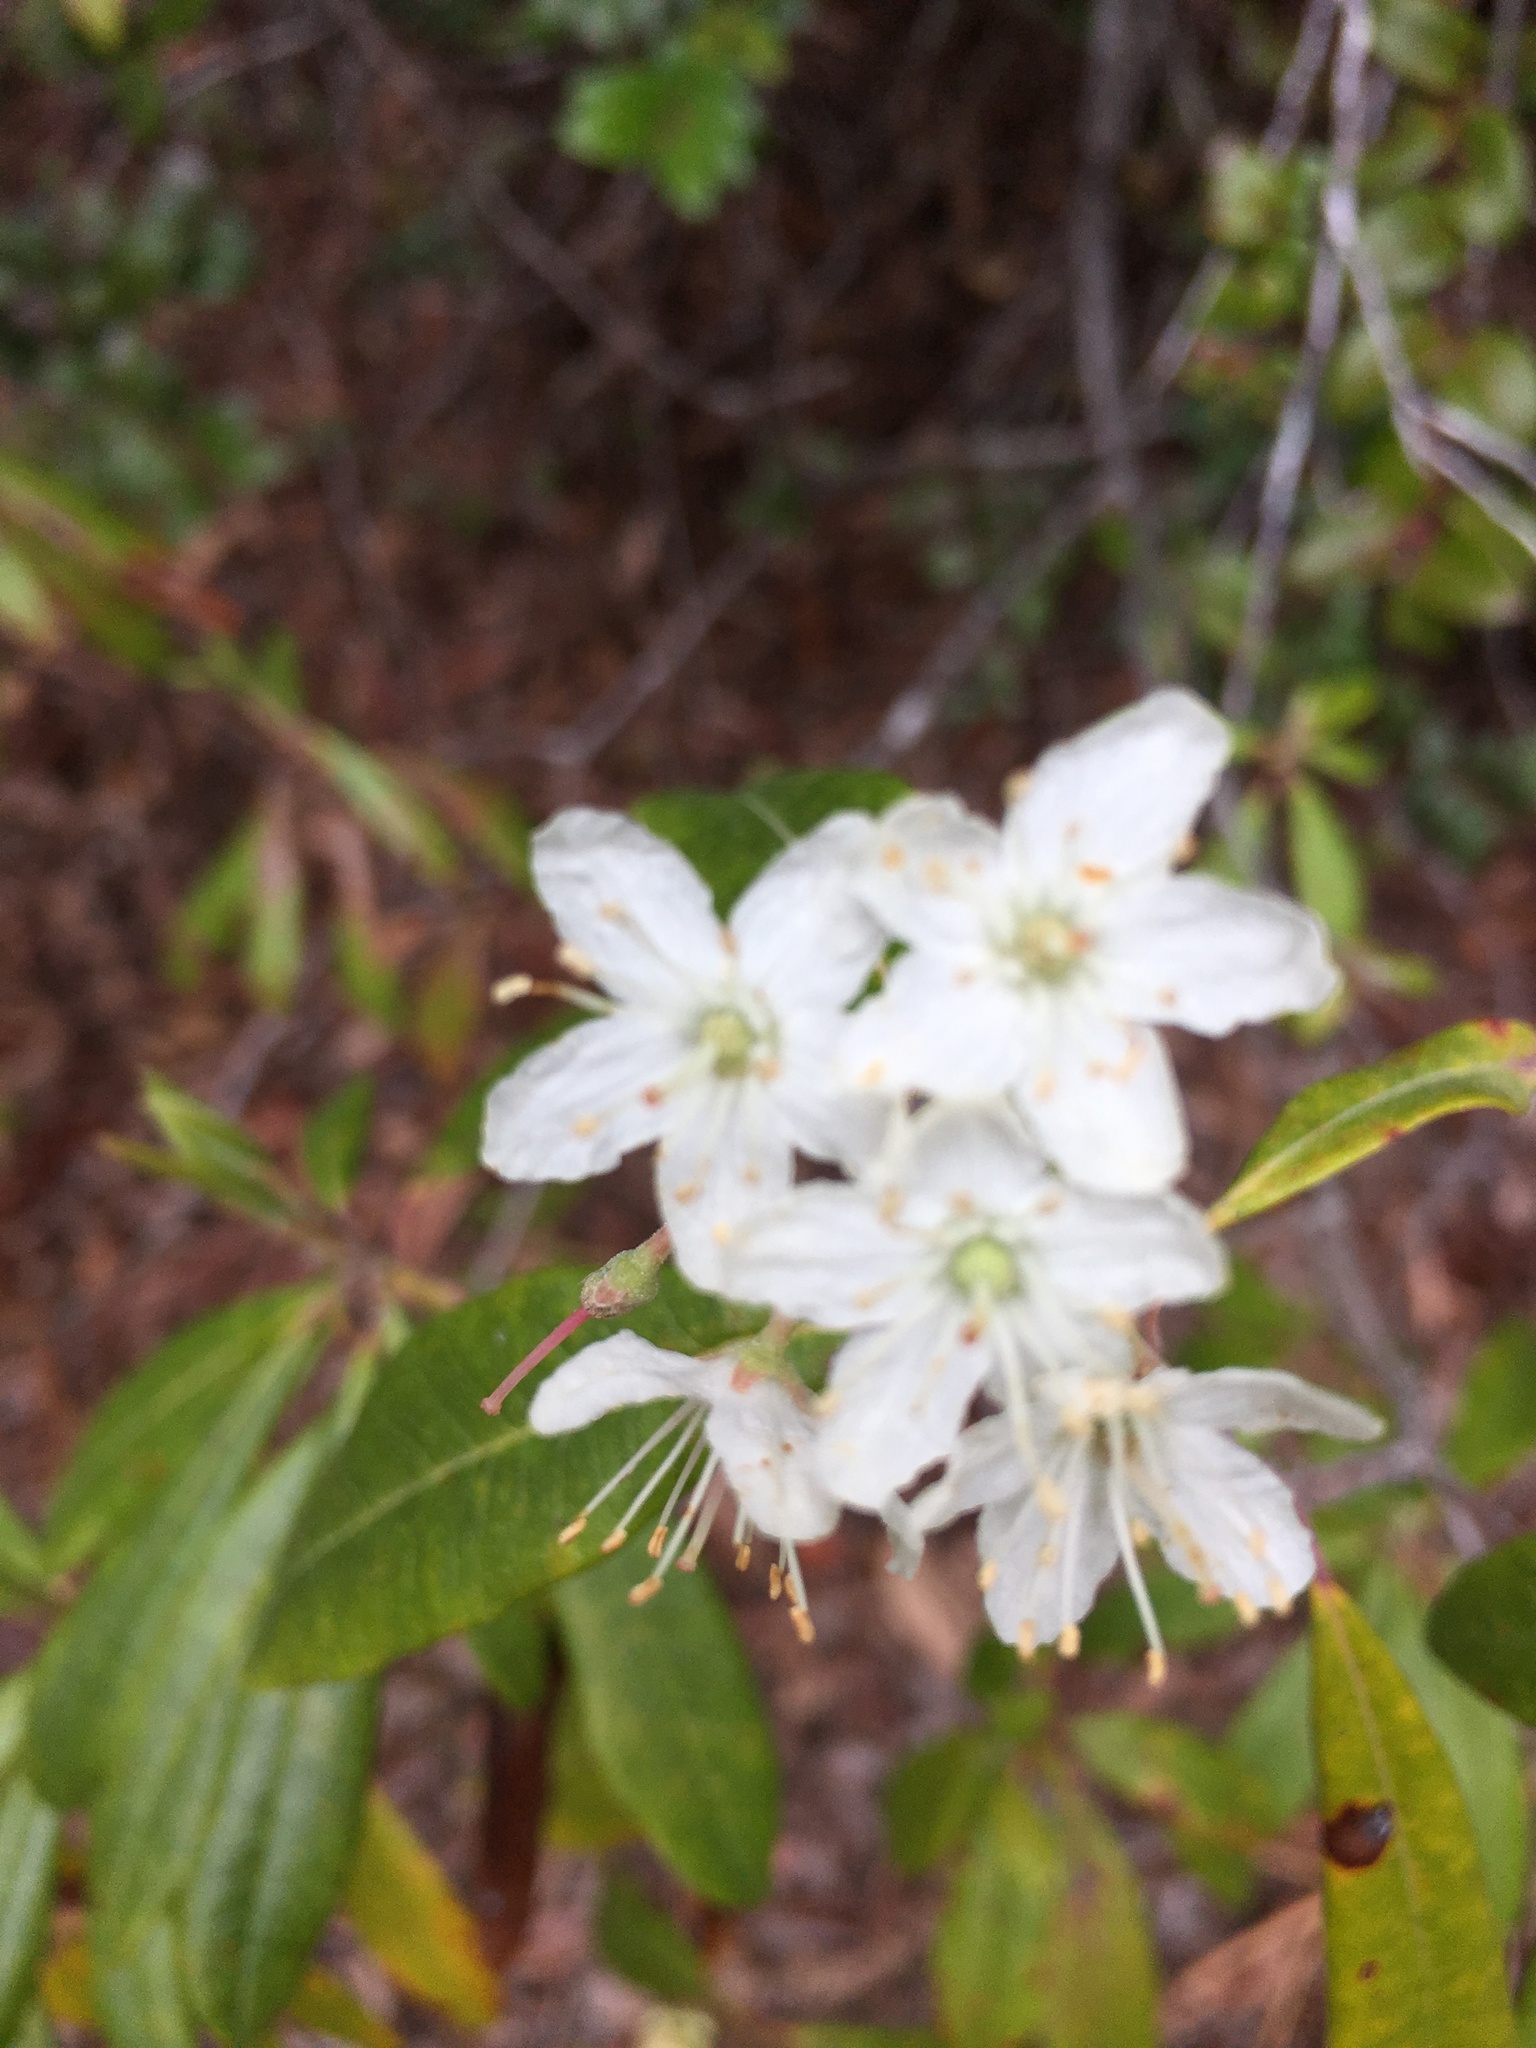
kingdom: Plantae
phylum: Tracheophyta
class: Magnoliopsida
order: Ericales
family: Ericaceae
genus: Rhododendron
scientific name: Rhododendron columbianum
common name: Western labrador tea
